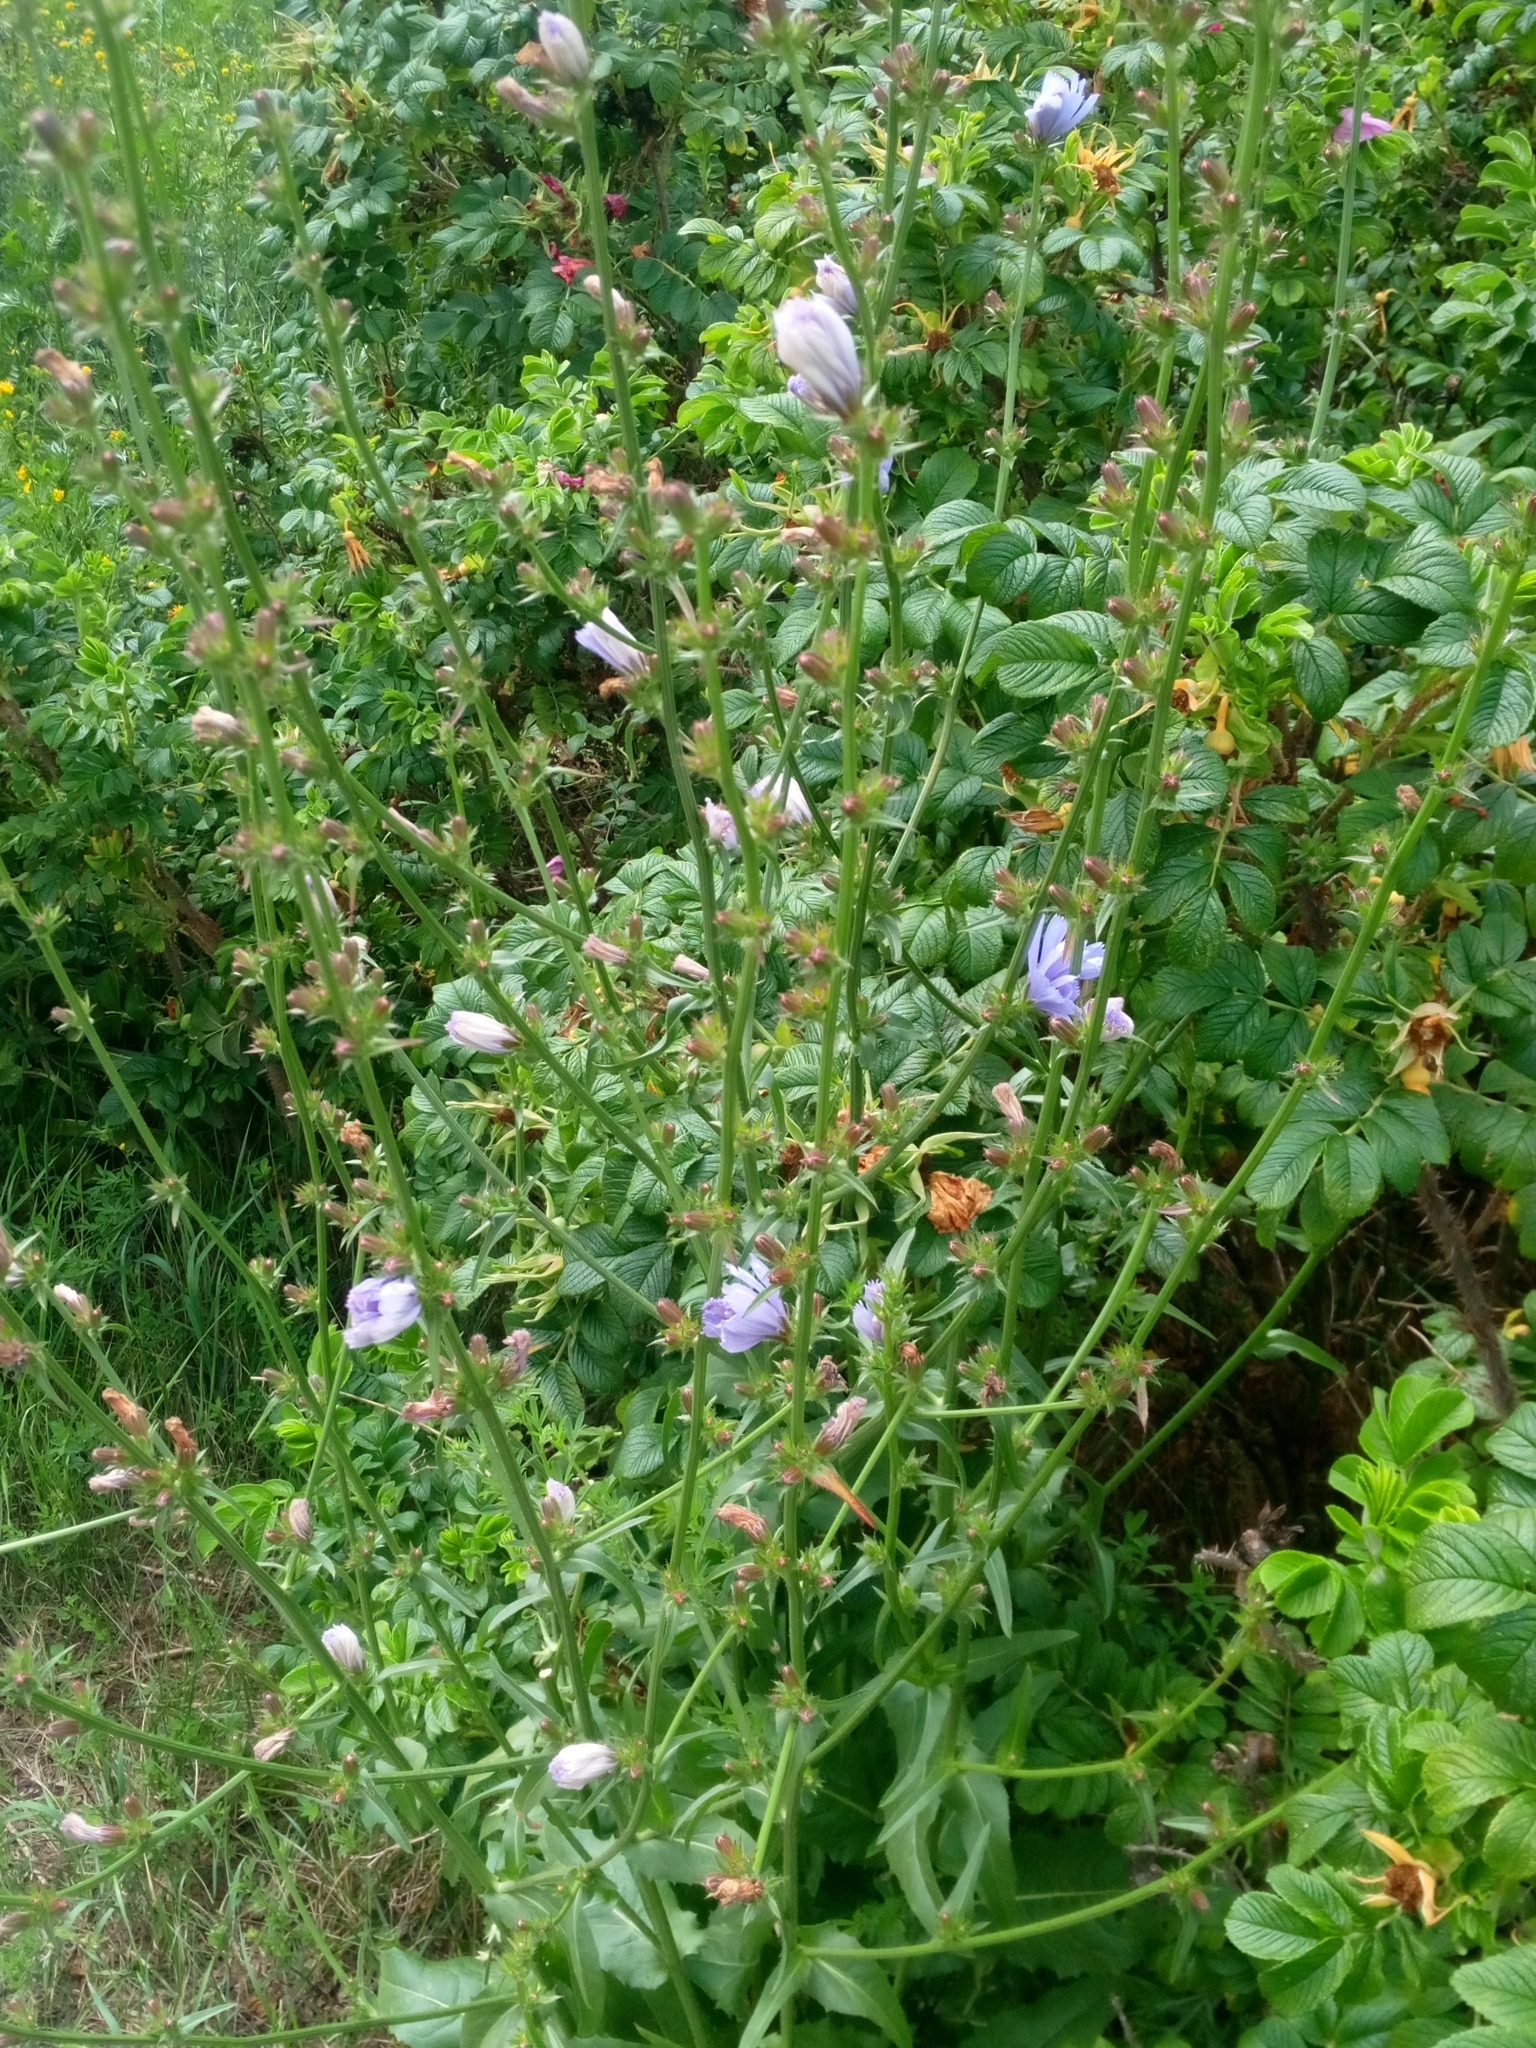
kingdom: Plantae
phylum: Tracheophyta
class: Magnoliopsida
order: Asterales
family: Asteraceae
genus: Cichorium
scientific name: Cichorium intybus
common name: Chicory
